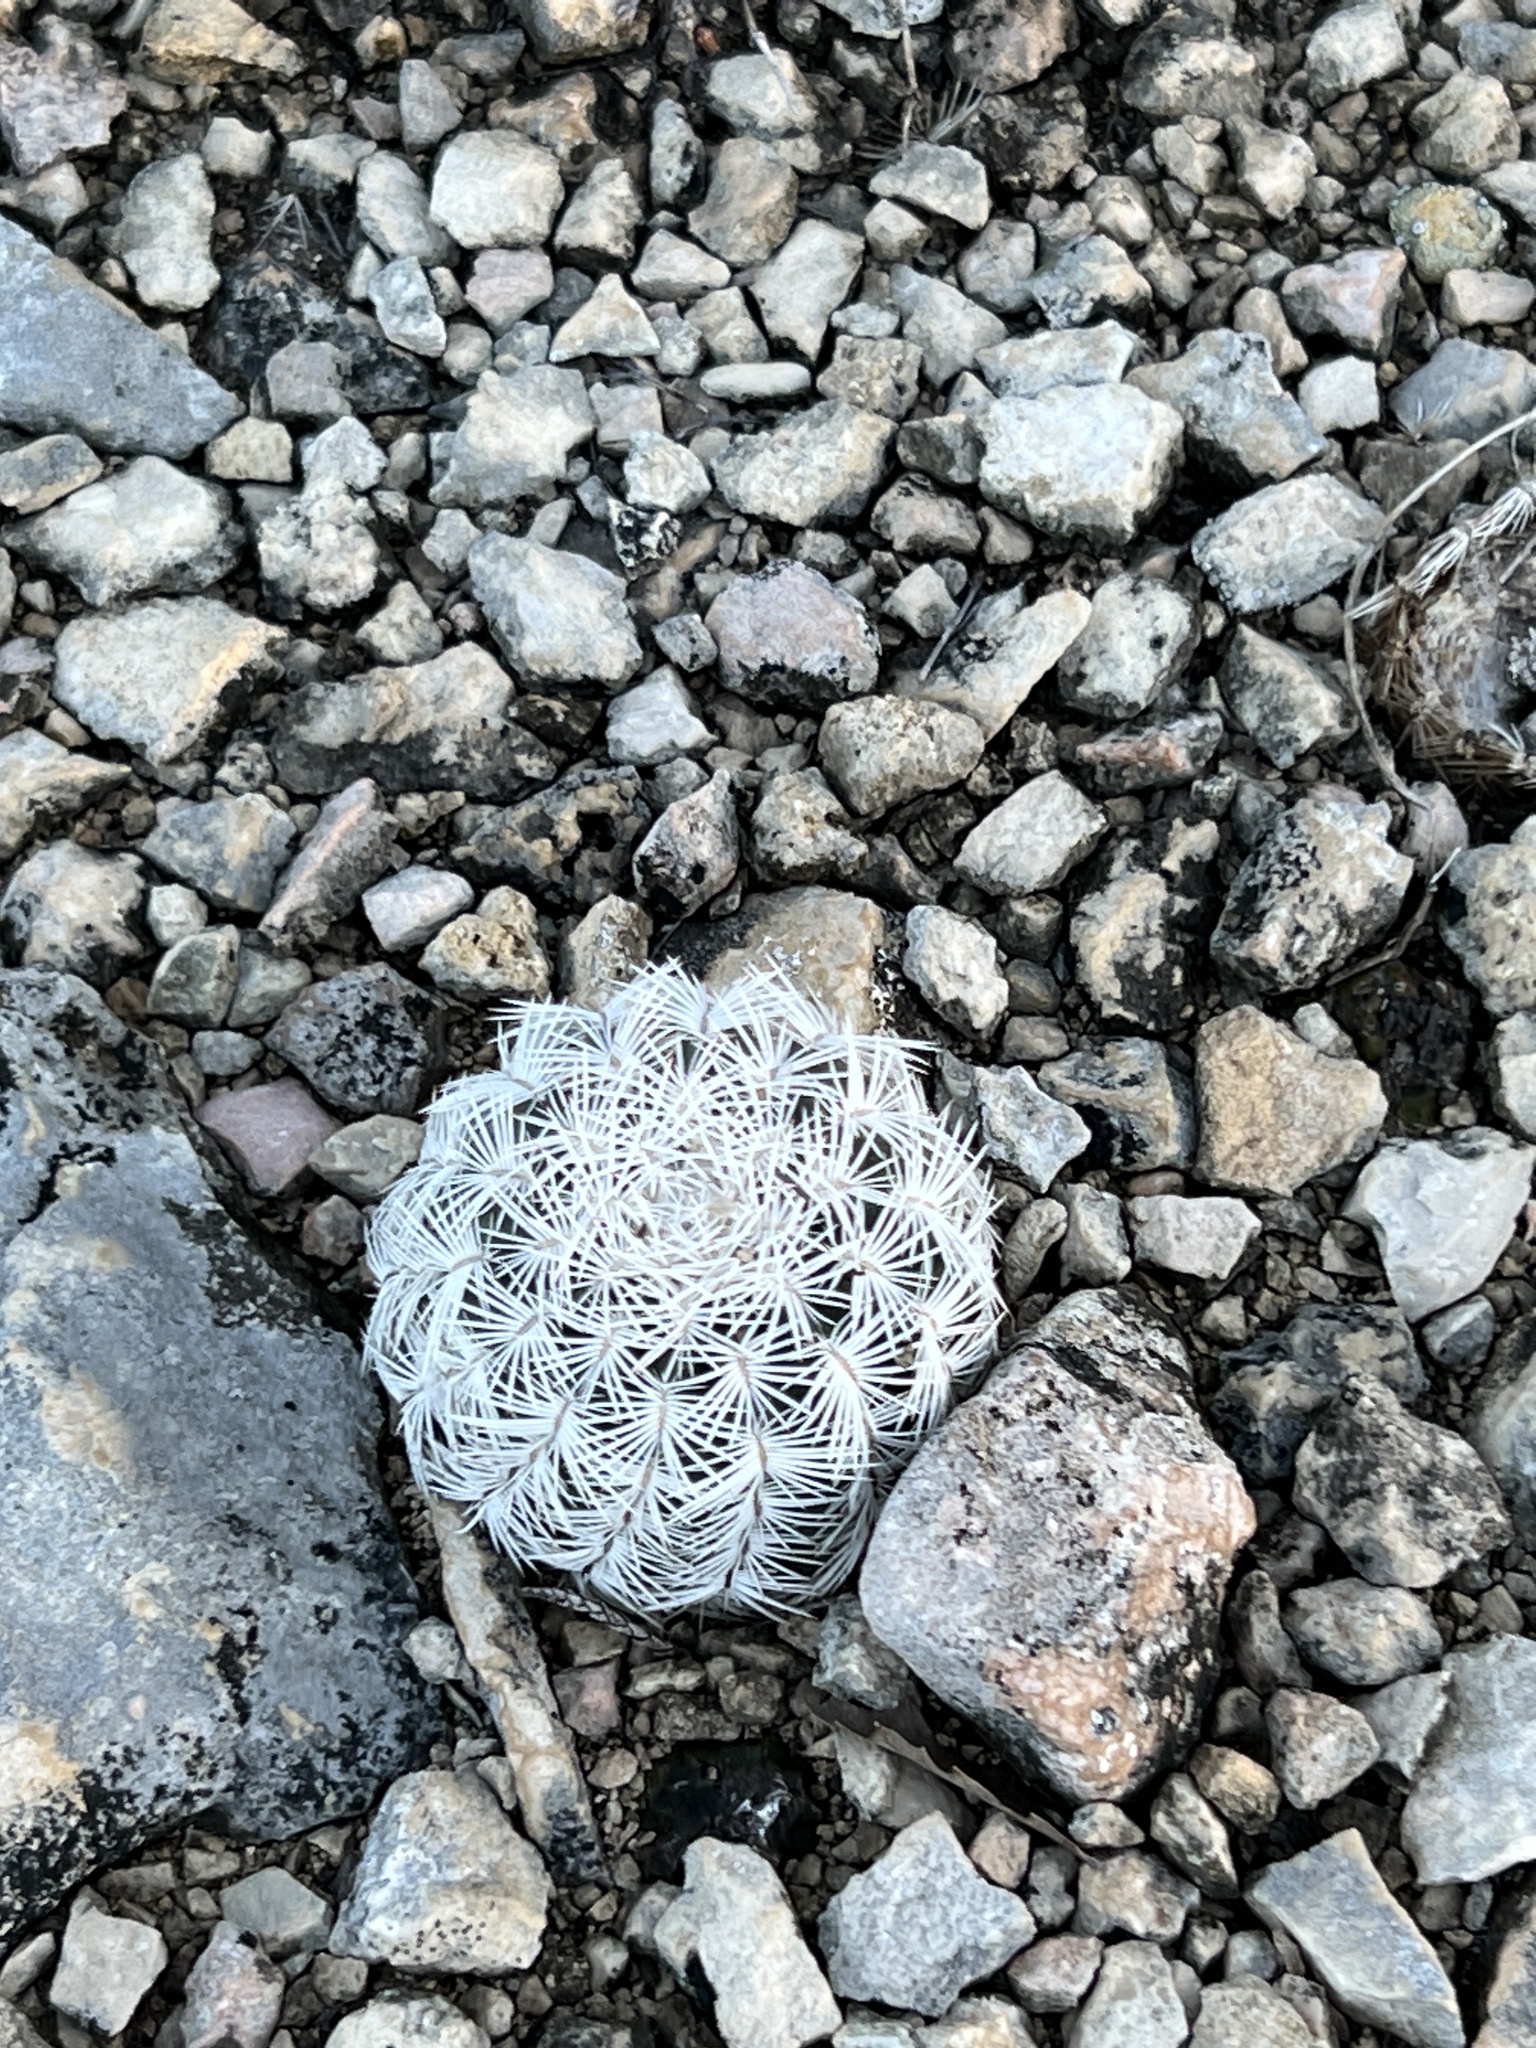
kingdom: Plantae
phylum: Tracheophyta
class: Magnoliopsida
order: Caryophyllales
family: Cactaceae
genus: Echinocereus
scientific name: Echinocereus reichenbachii
